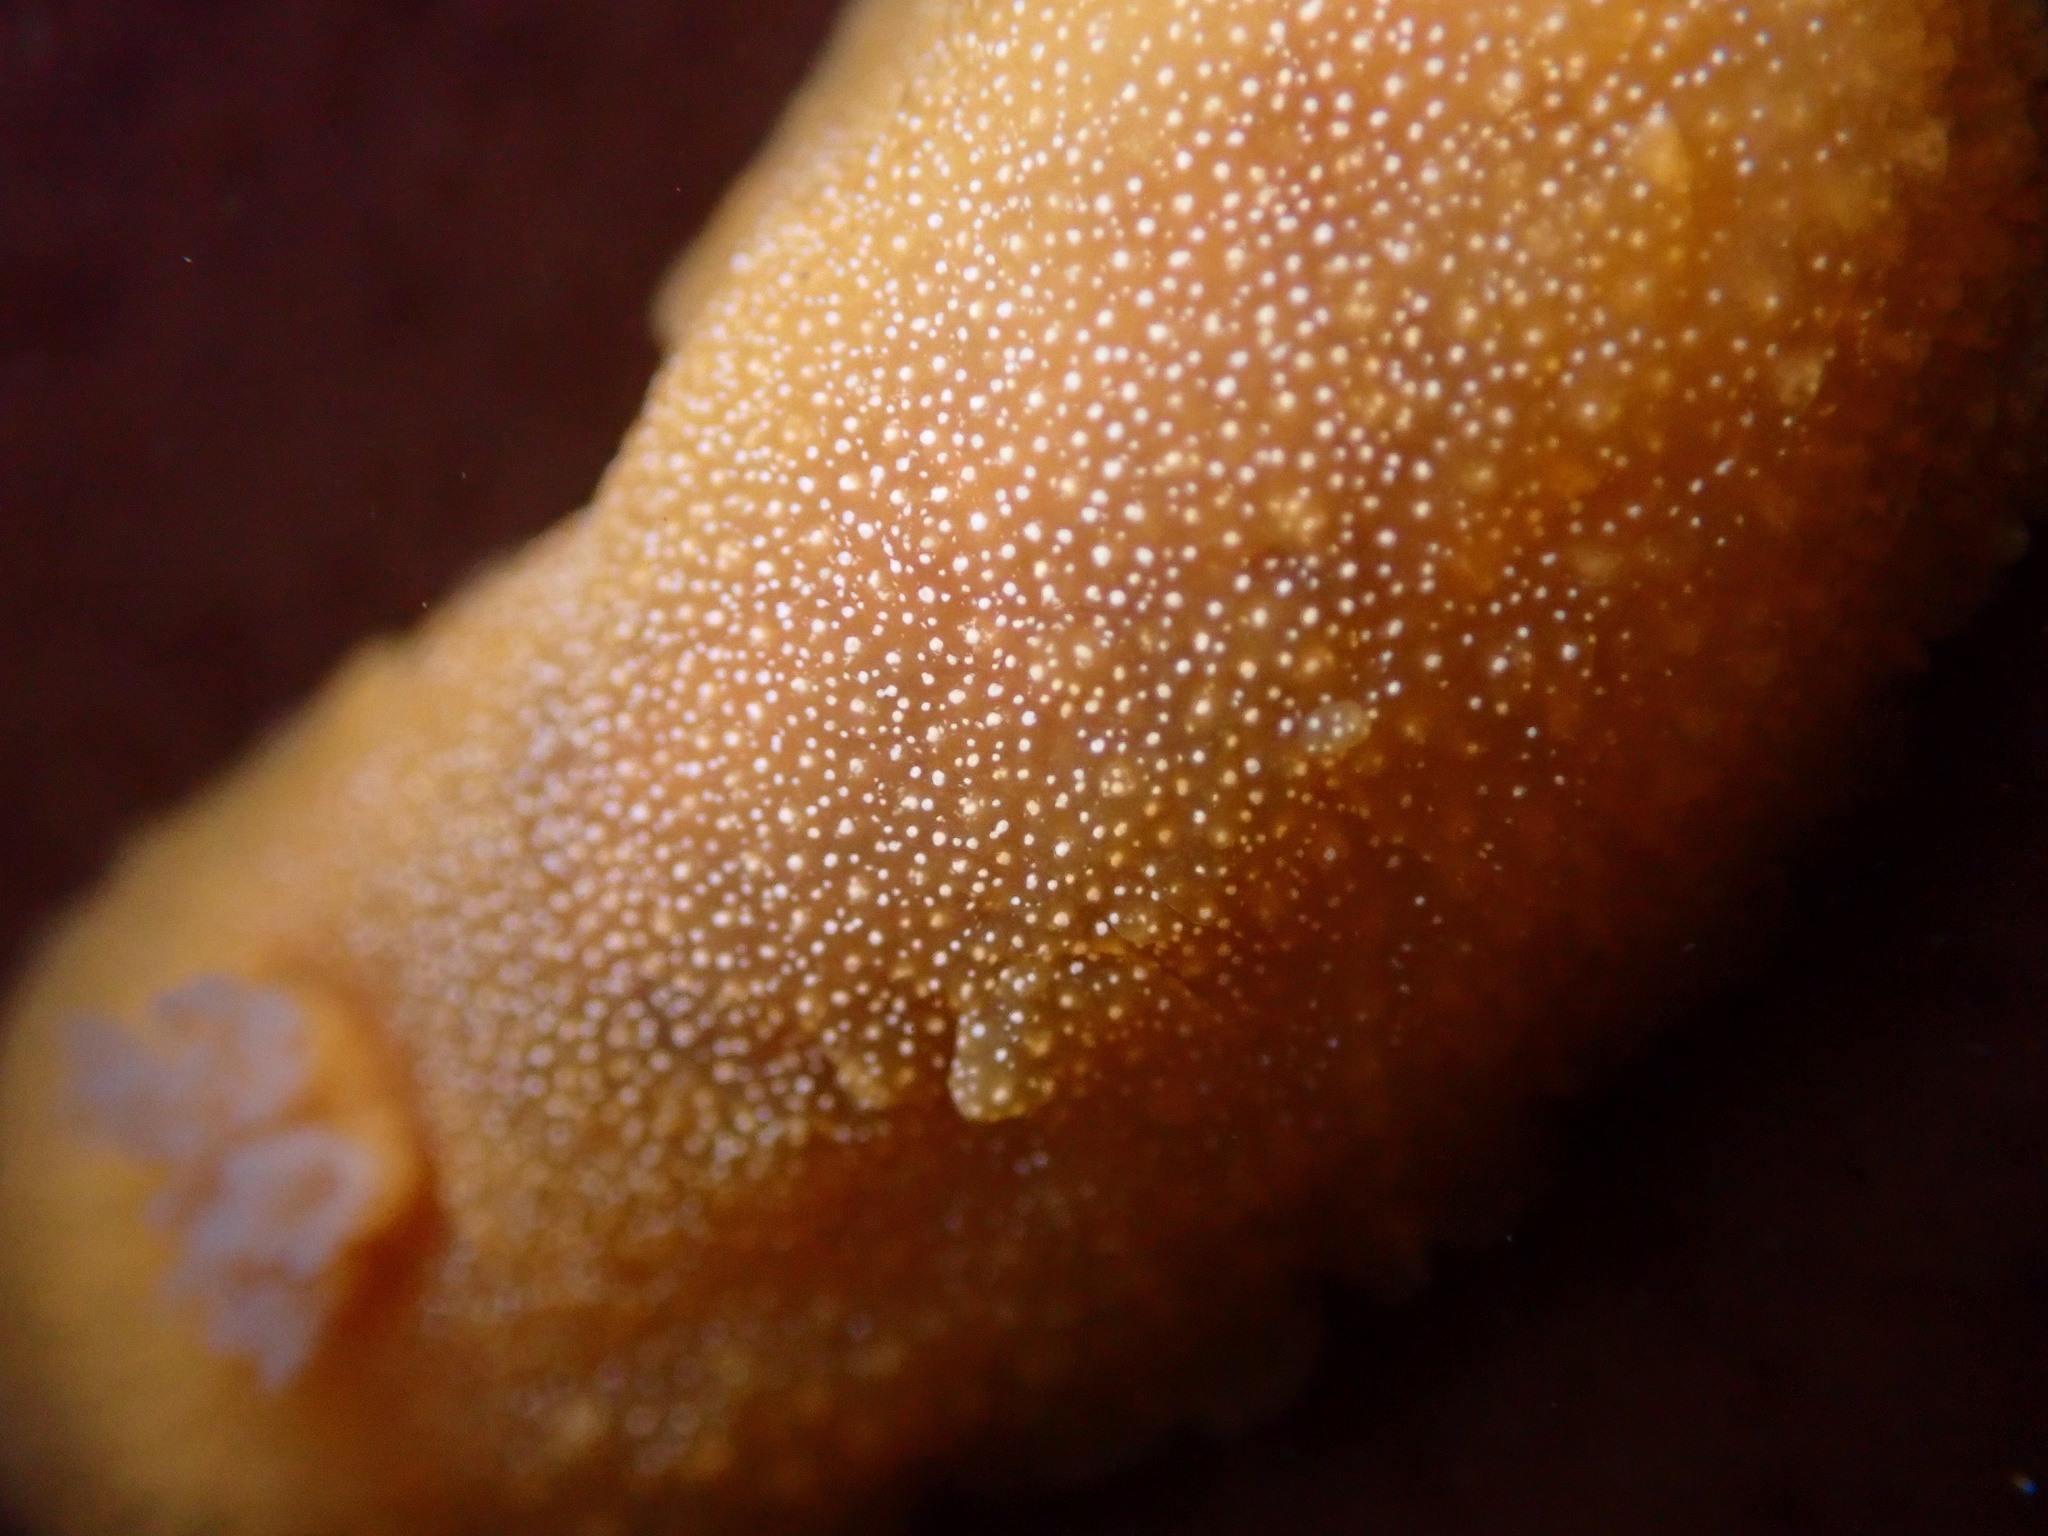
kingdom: Animalia
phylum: Mollusca
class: Gastropoda
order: Nudibranchia
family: Dendrodorididae
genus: Doriopsilla
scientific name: Doriopsilla albopunctata
